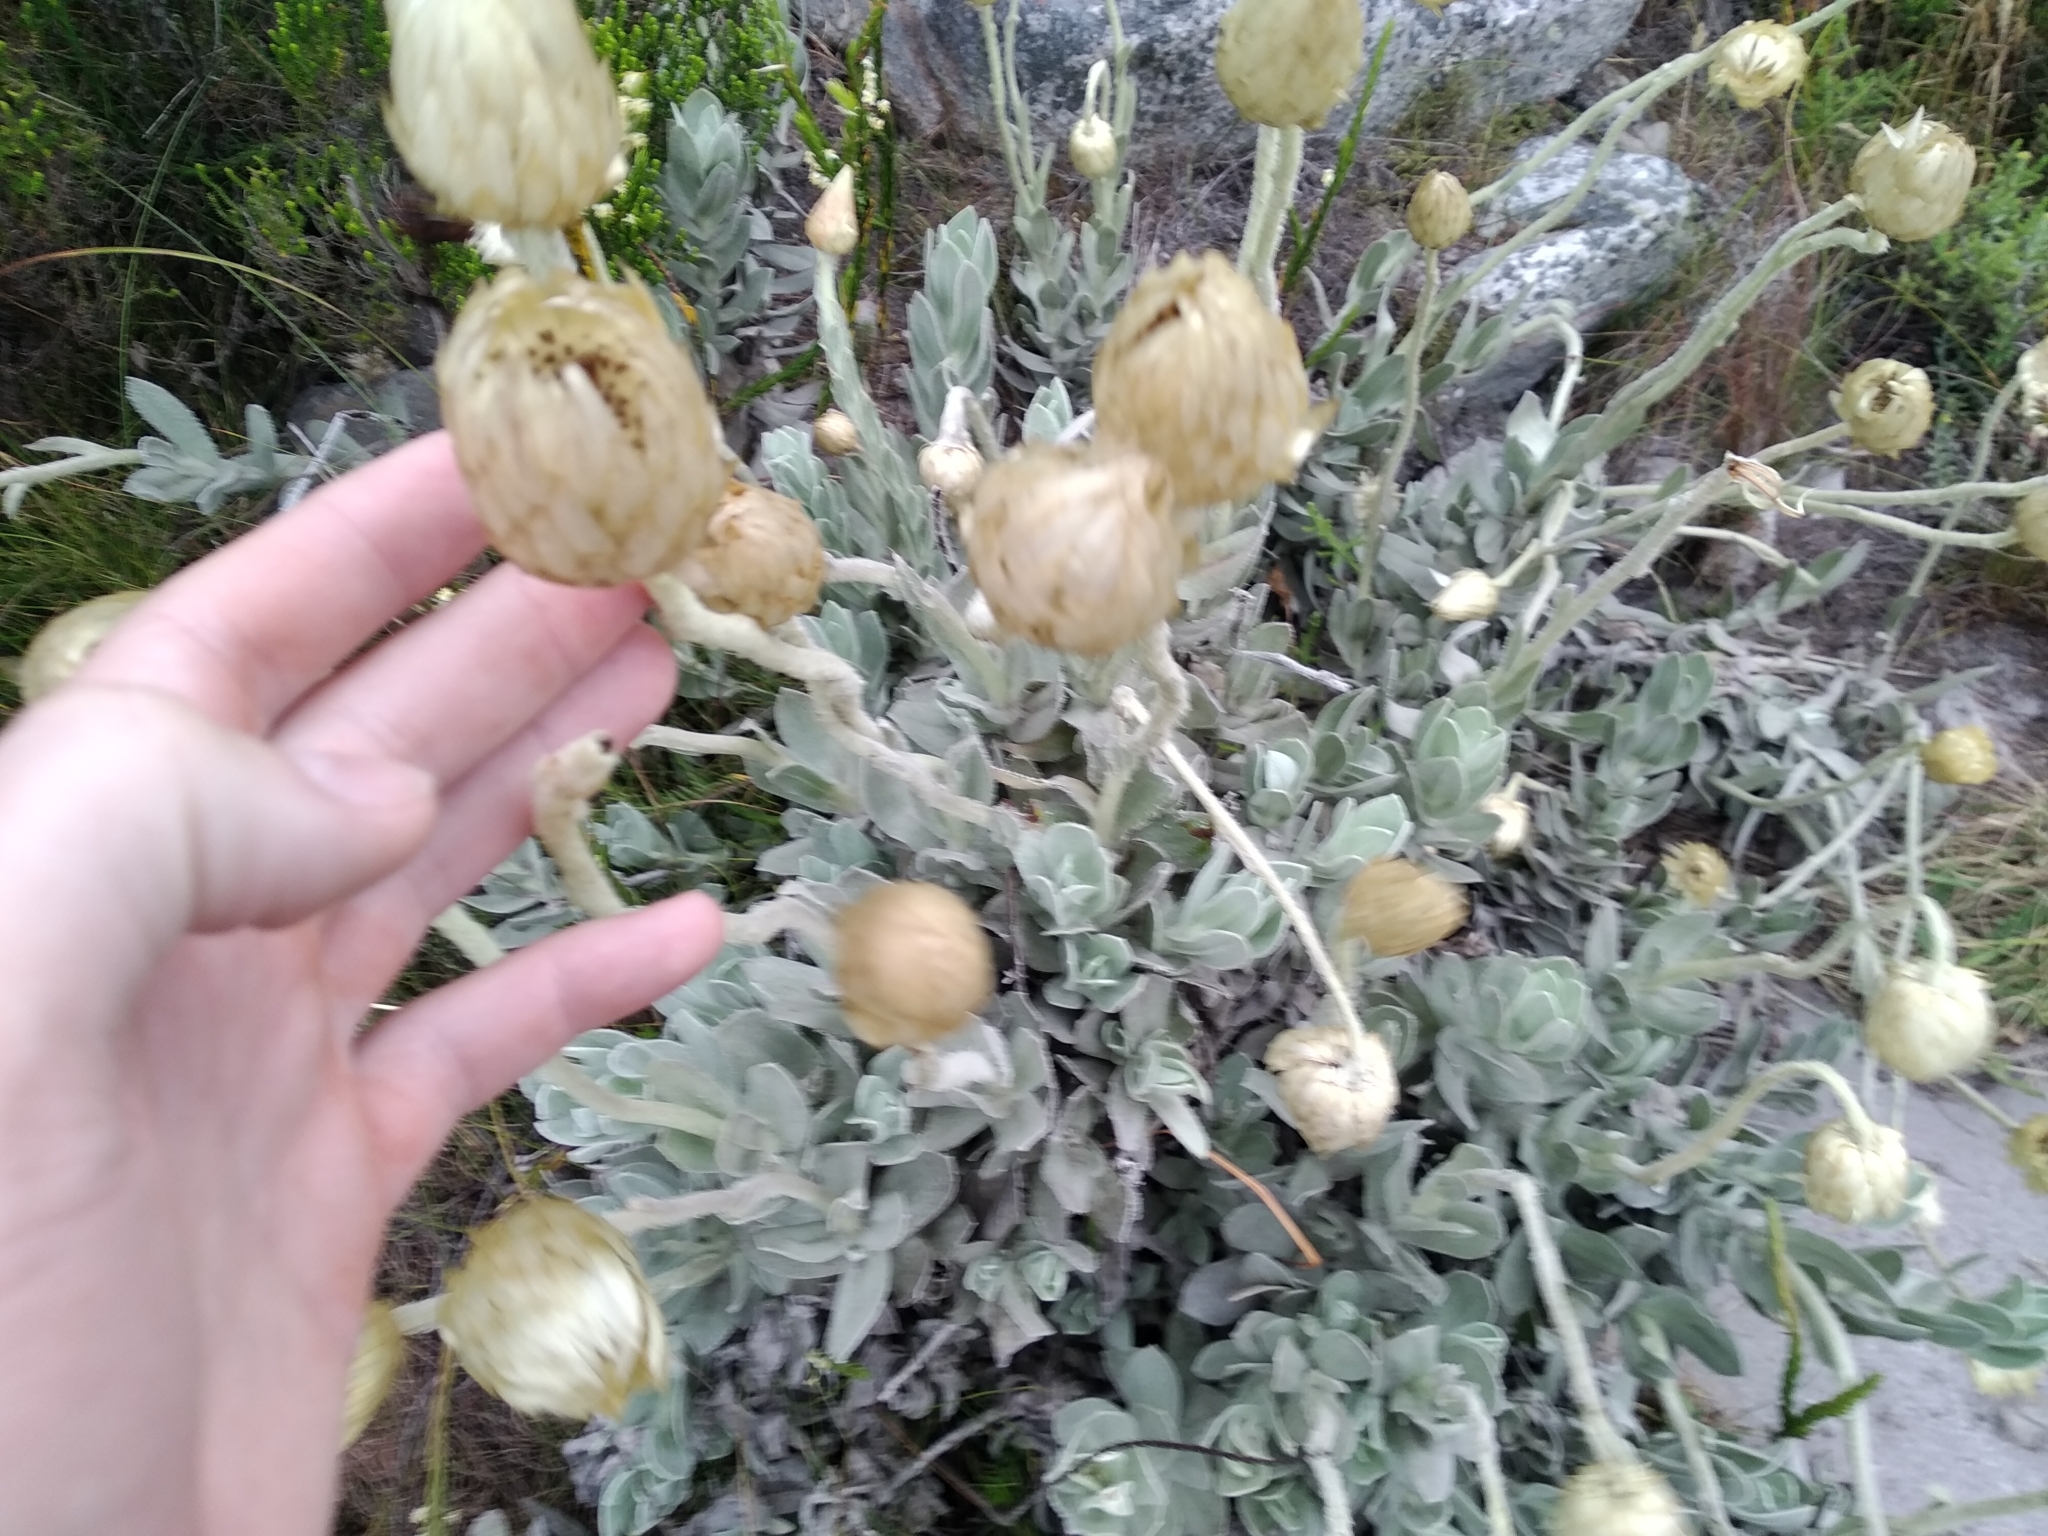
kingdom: Plantae
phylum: Tracheophyta
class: Magnoliopsida
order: Asterales
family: Asteraceae
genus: Syncarpha
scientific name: Syncarpha speciosissima
